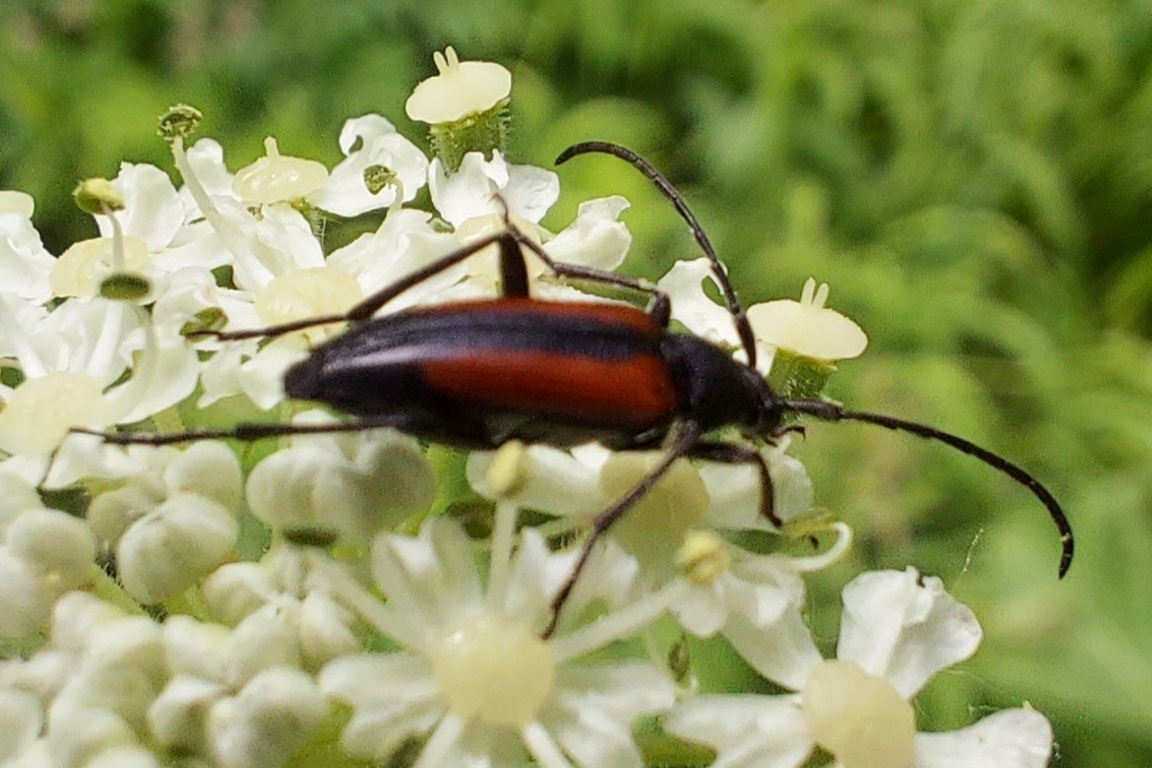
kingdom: Animalia
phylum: Arthropoda
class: Insecta
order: Coleoptera
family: Cerambycidae
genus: Stenurella
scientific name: Stenurella melanura
